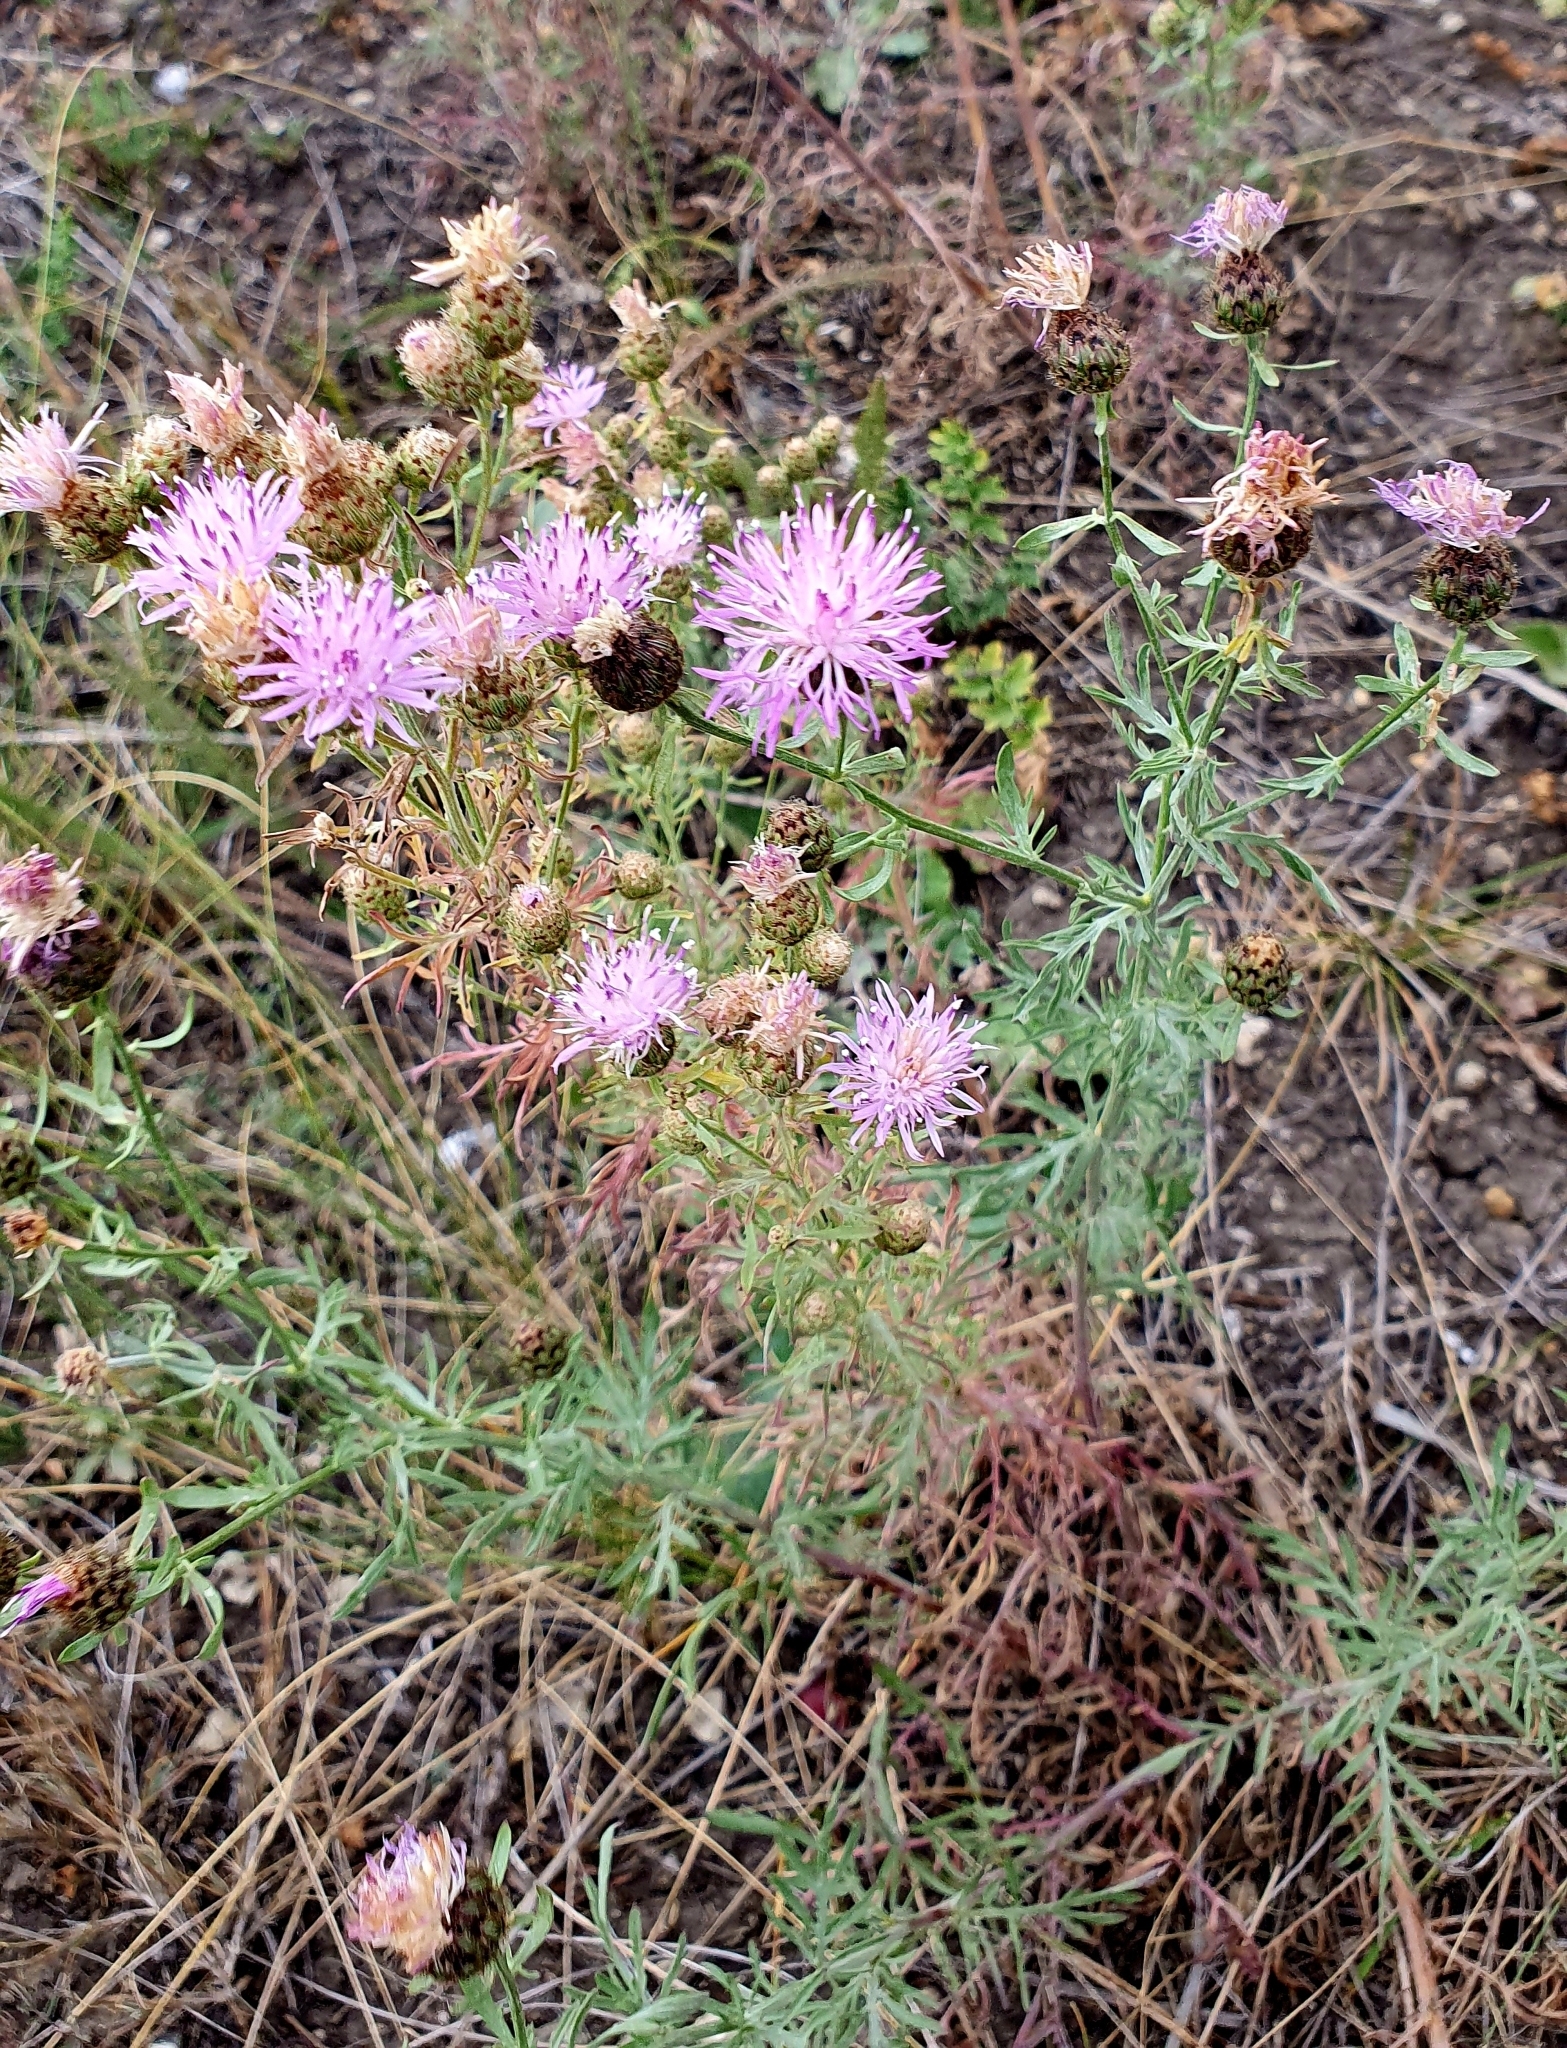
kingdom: Plantae
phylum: Tracheophyta
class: Magnoliopsida
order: Asterales
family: Asteraceae
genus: Centaurea
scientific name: Centaurea stoebe
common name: Spotted knapweed
